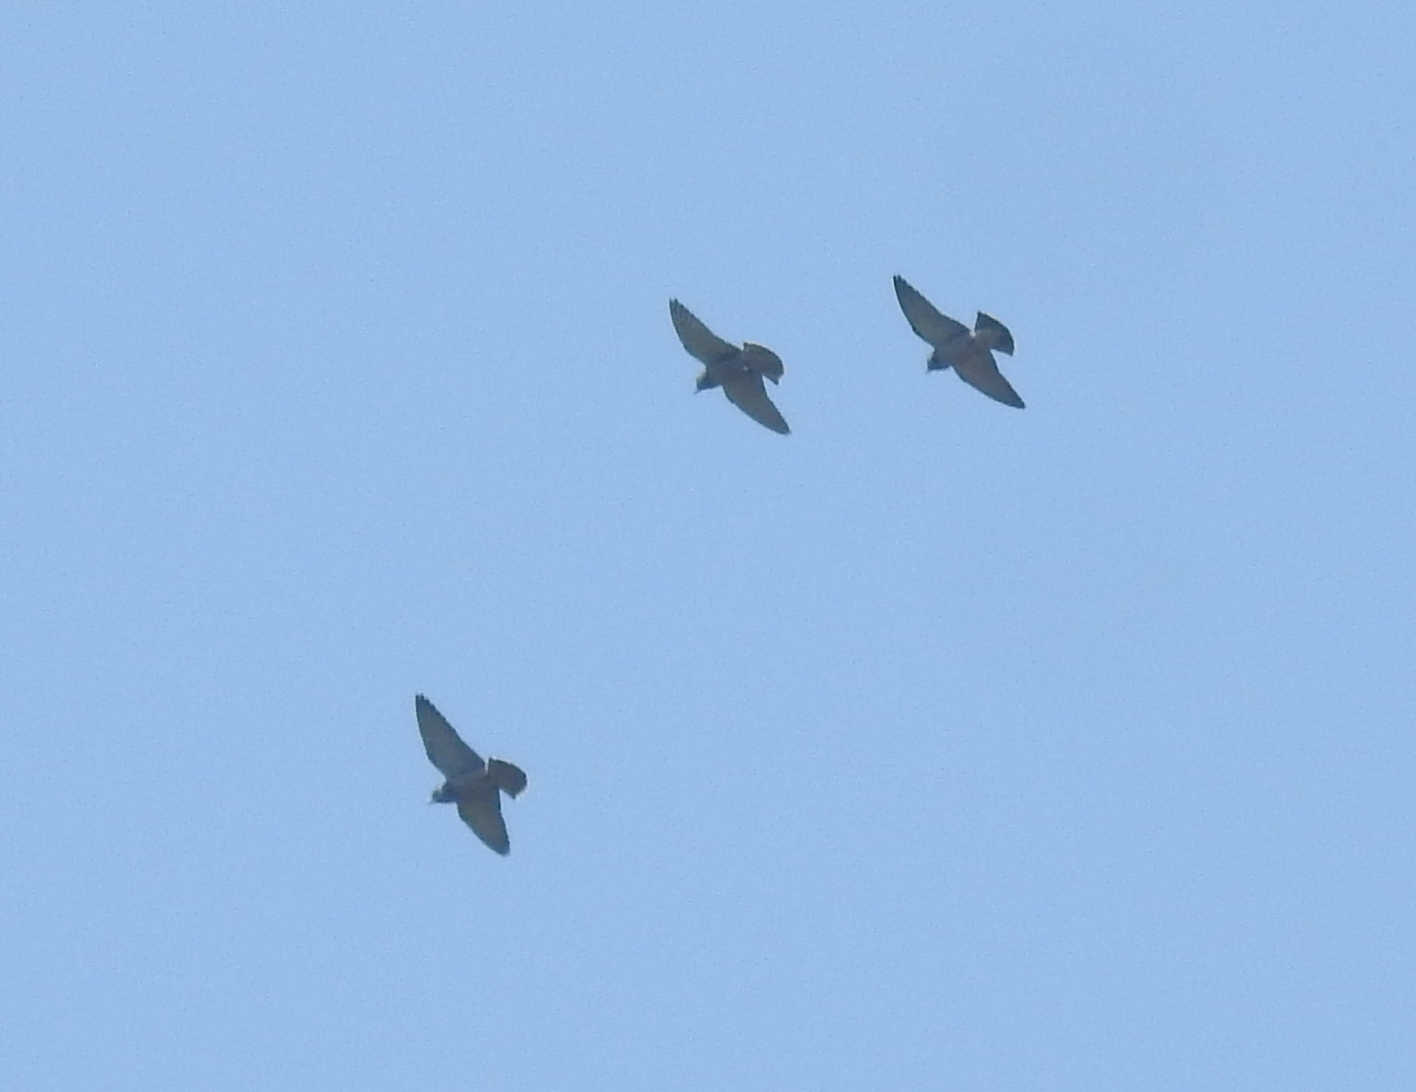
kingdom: Animalia
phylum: Chordata
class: Aves
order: Passeriformes
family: Artamidae
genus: Artamus
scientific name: Artamus fuscus
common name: Ashy woodswallow
